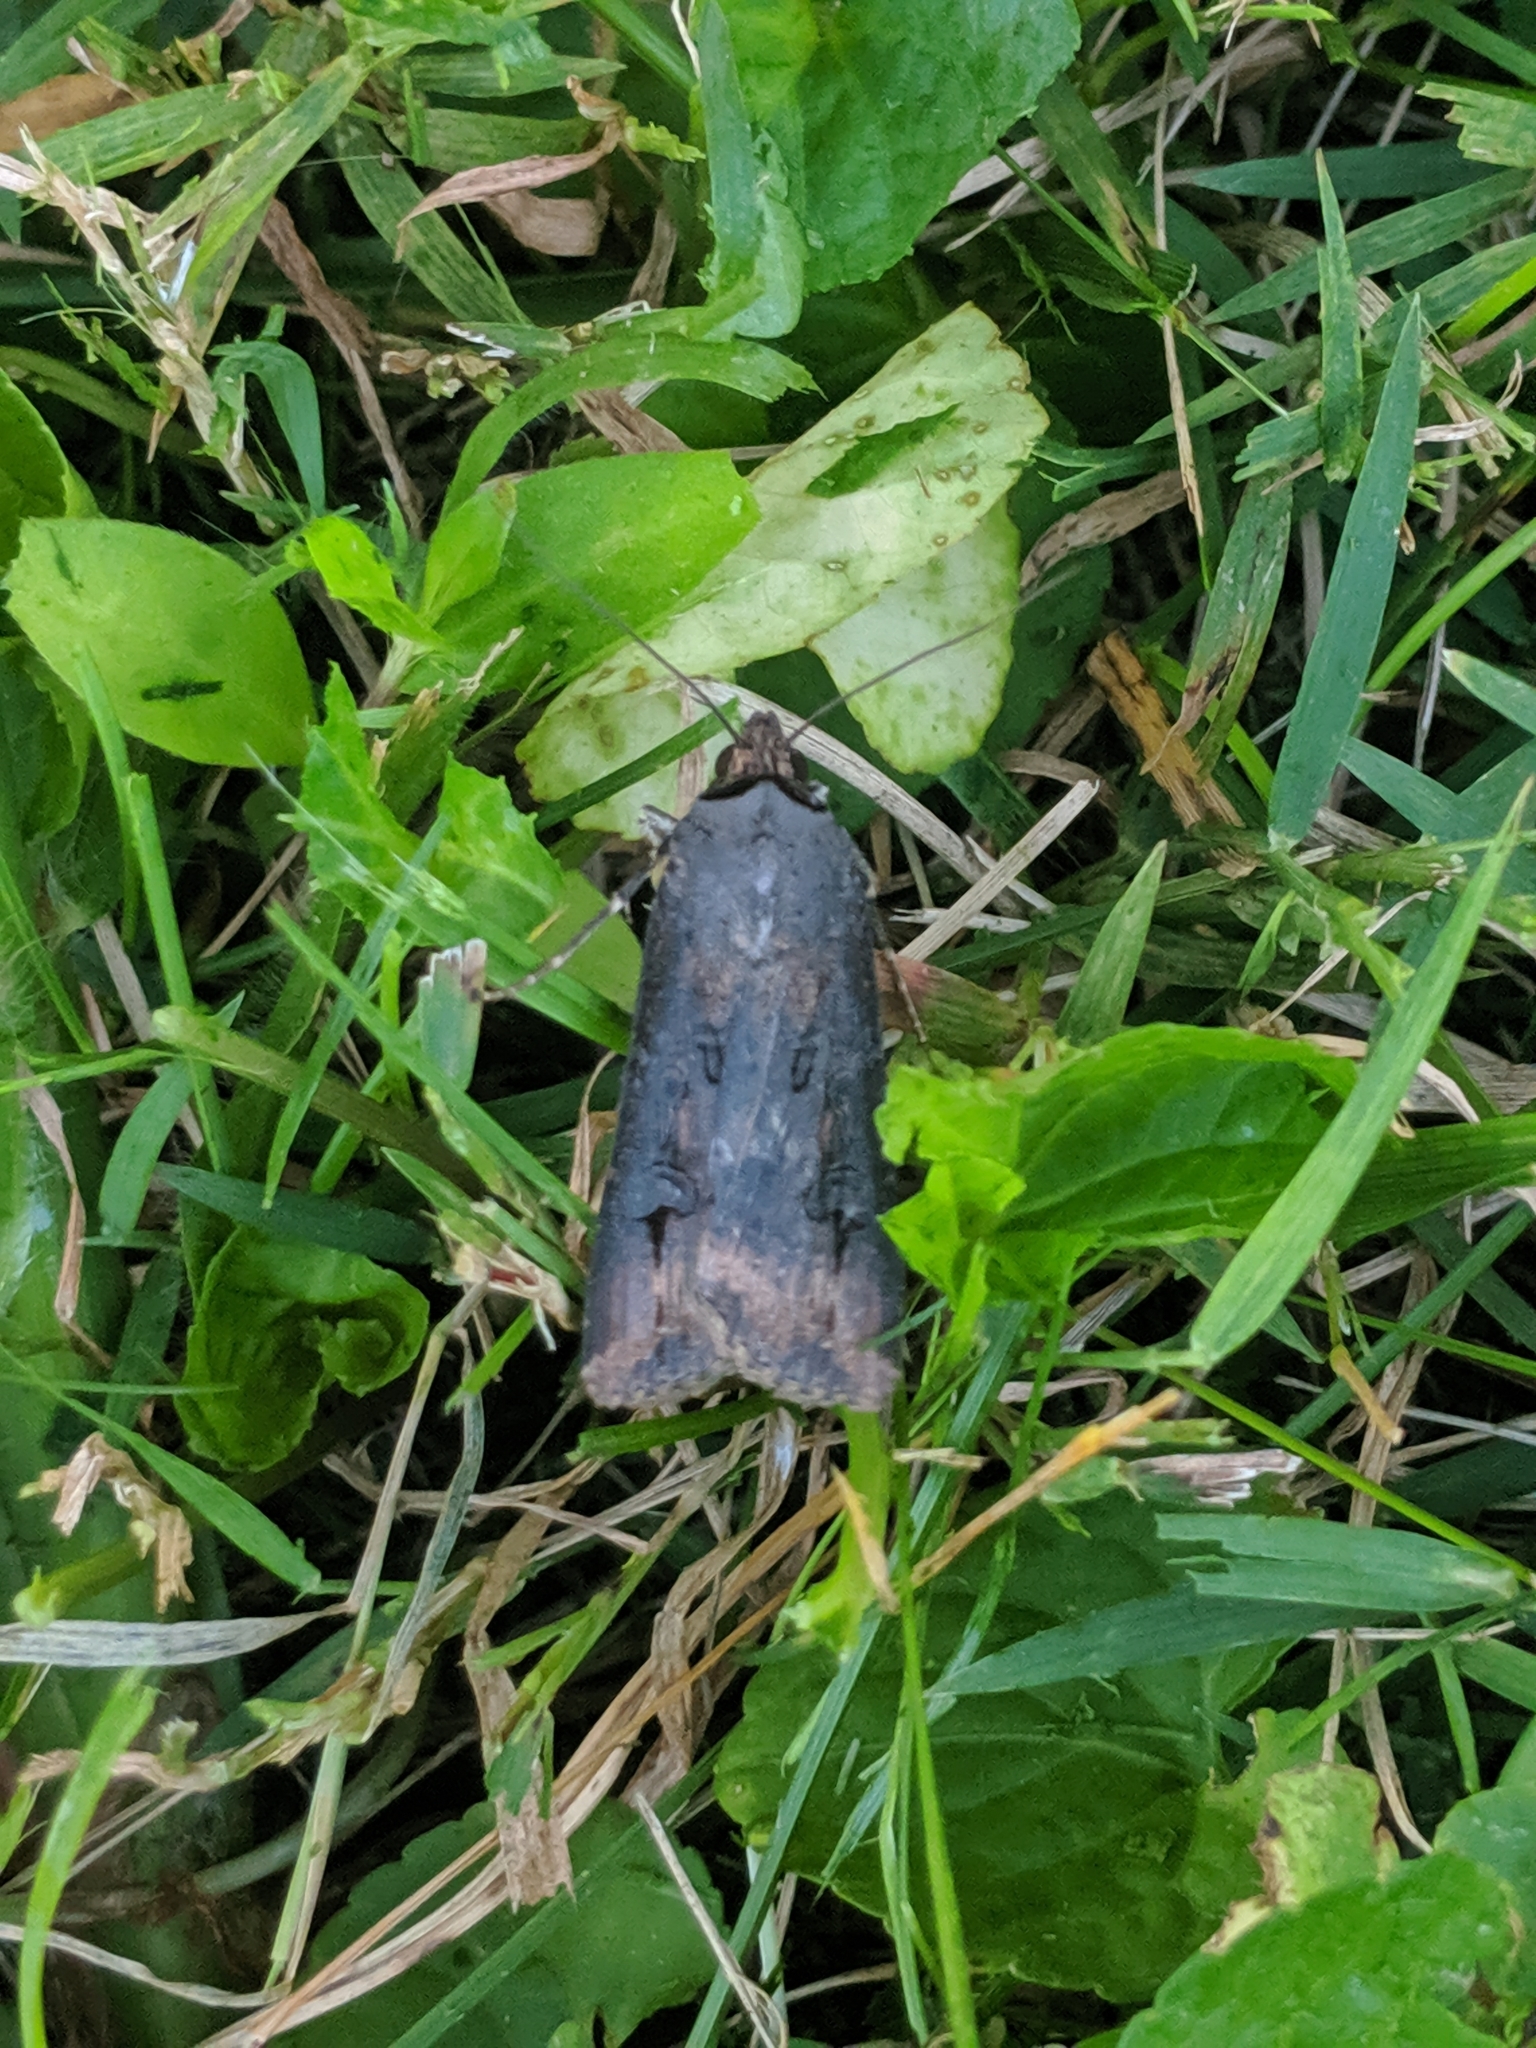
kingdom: Animalia
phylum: Arthropoda
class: Insecta
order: Lepidoptera
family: Noctuidae
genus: Agrotis
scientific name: Agrotis ipsilon
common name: Dark sword-grass
